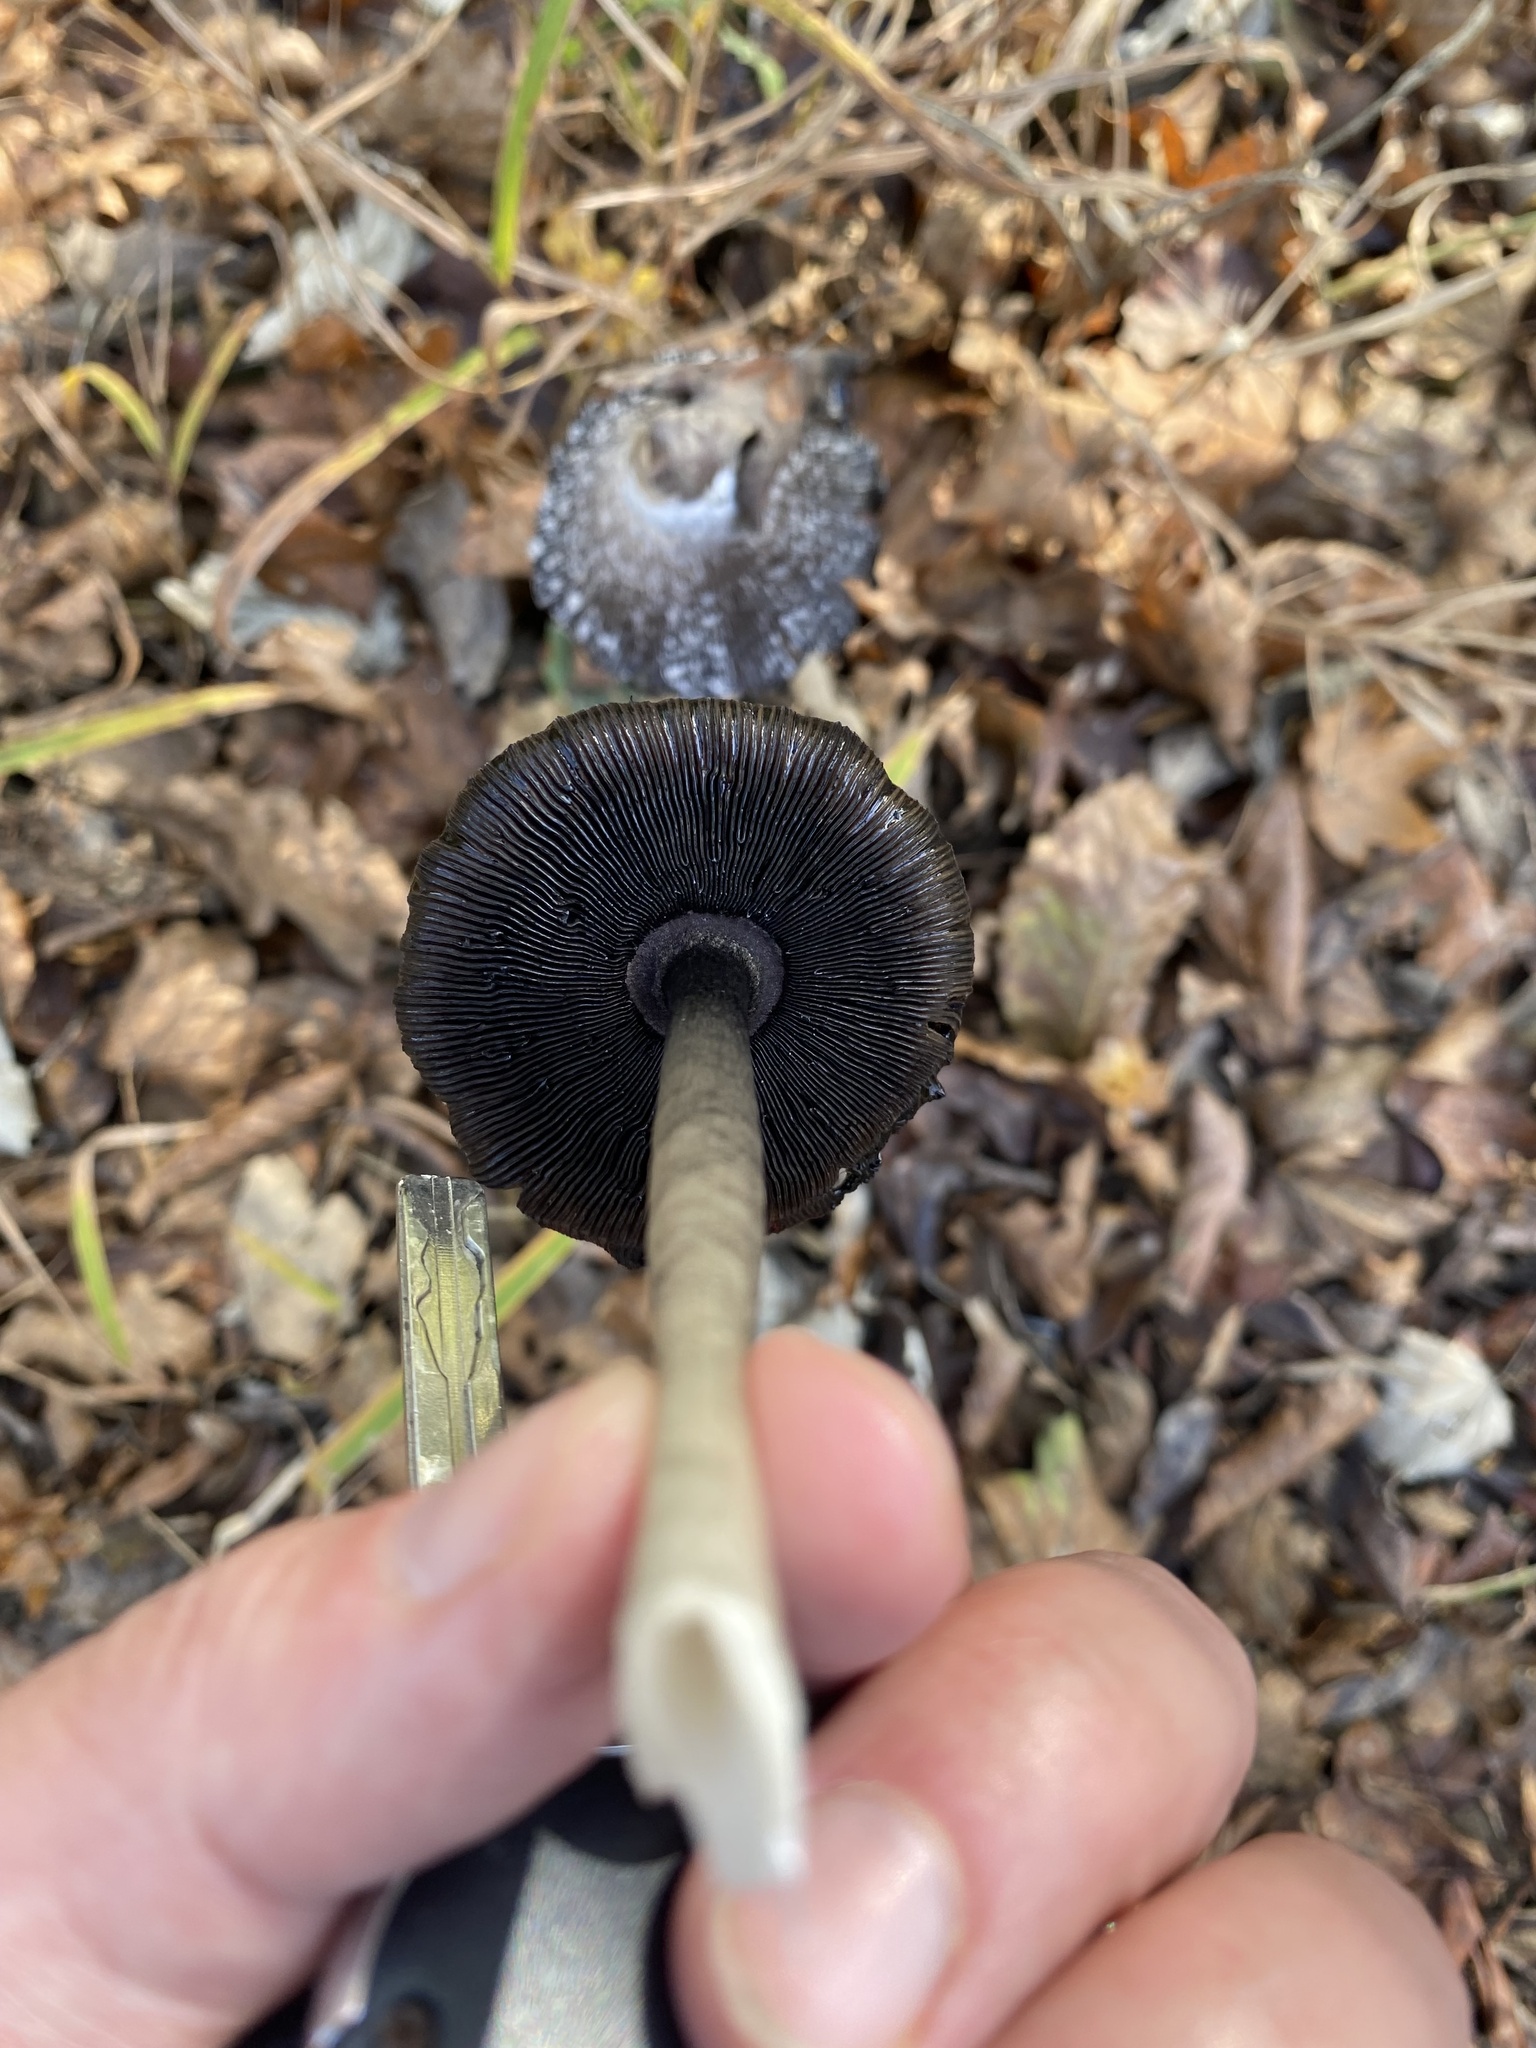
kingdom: Fungi
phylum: Basidiomycota
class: Agaricomycetes
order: Agaricales
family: Agaricaceae
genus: Coprinus
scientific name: Coprinus comatus
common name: Lawyer's wig
